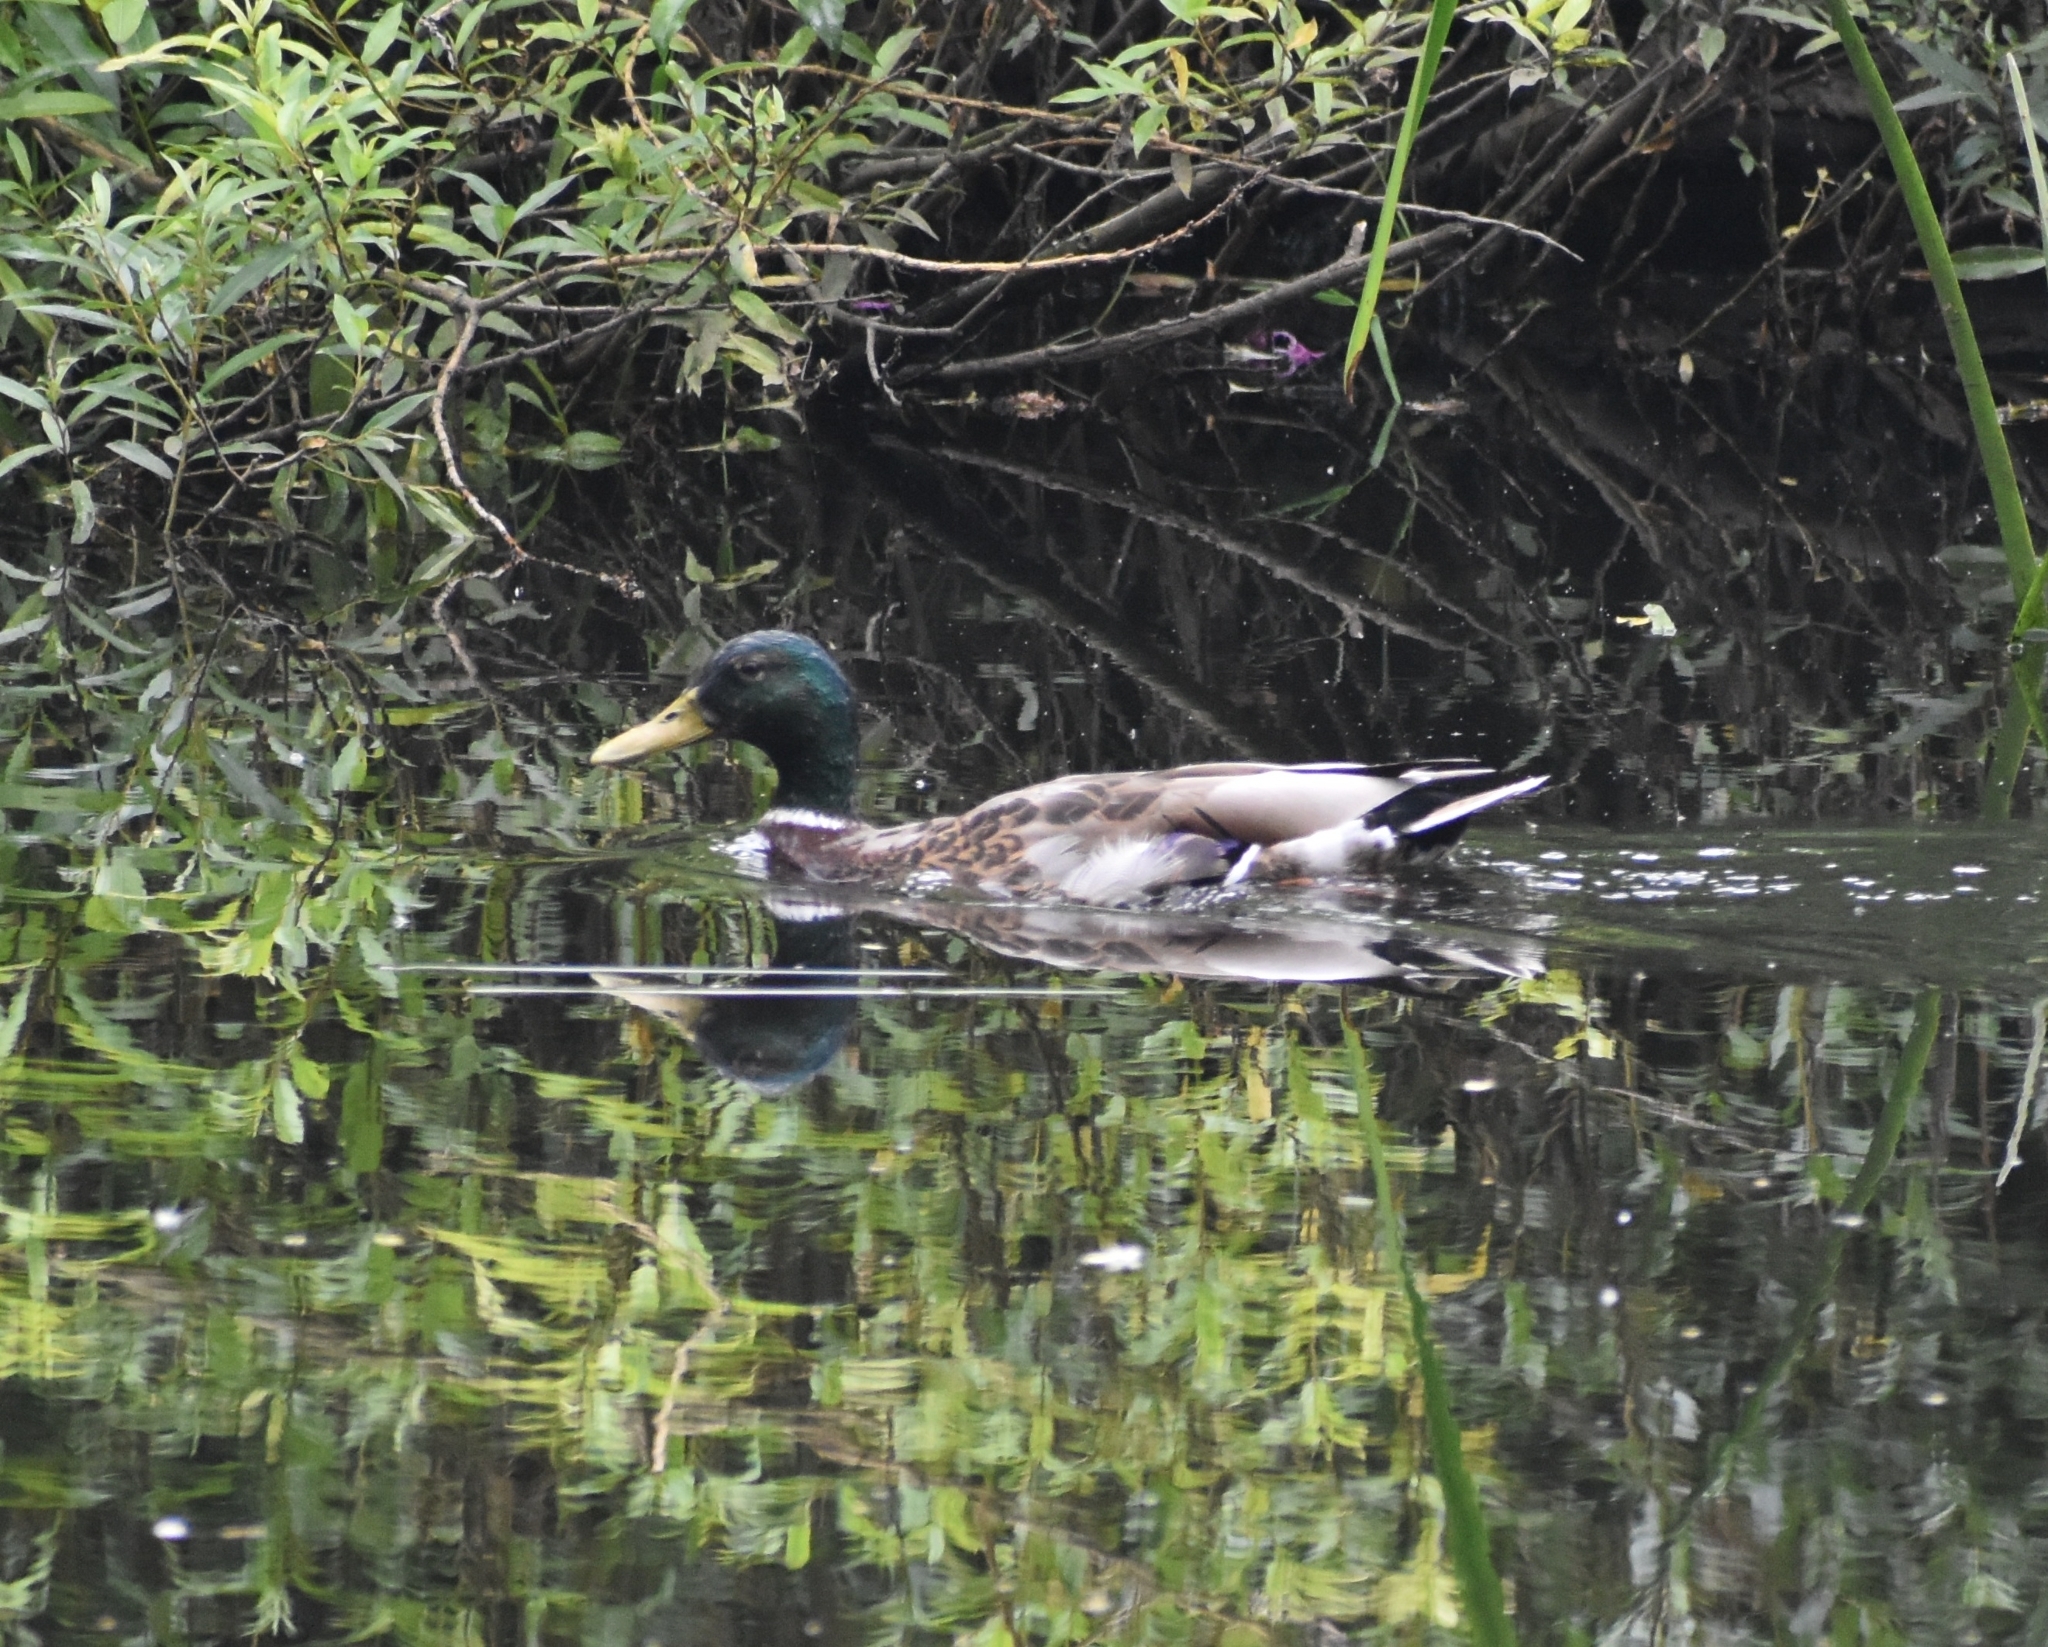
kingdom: Animalia
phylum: Chordata
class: Aves
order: Anseriformes
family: Anatidae
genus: Anas
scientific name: Anas platyrhynchos
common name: Mallard
